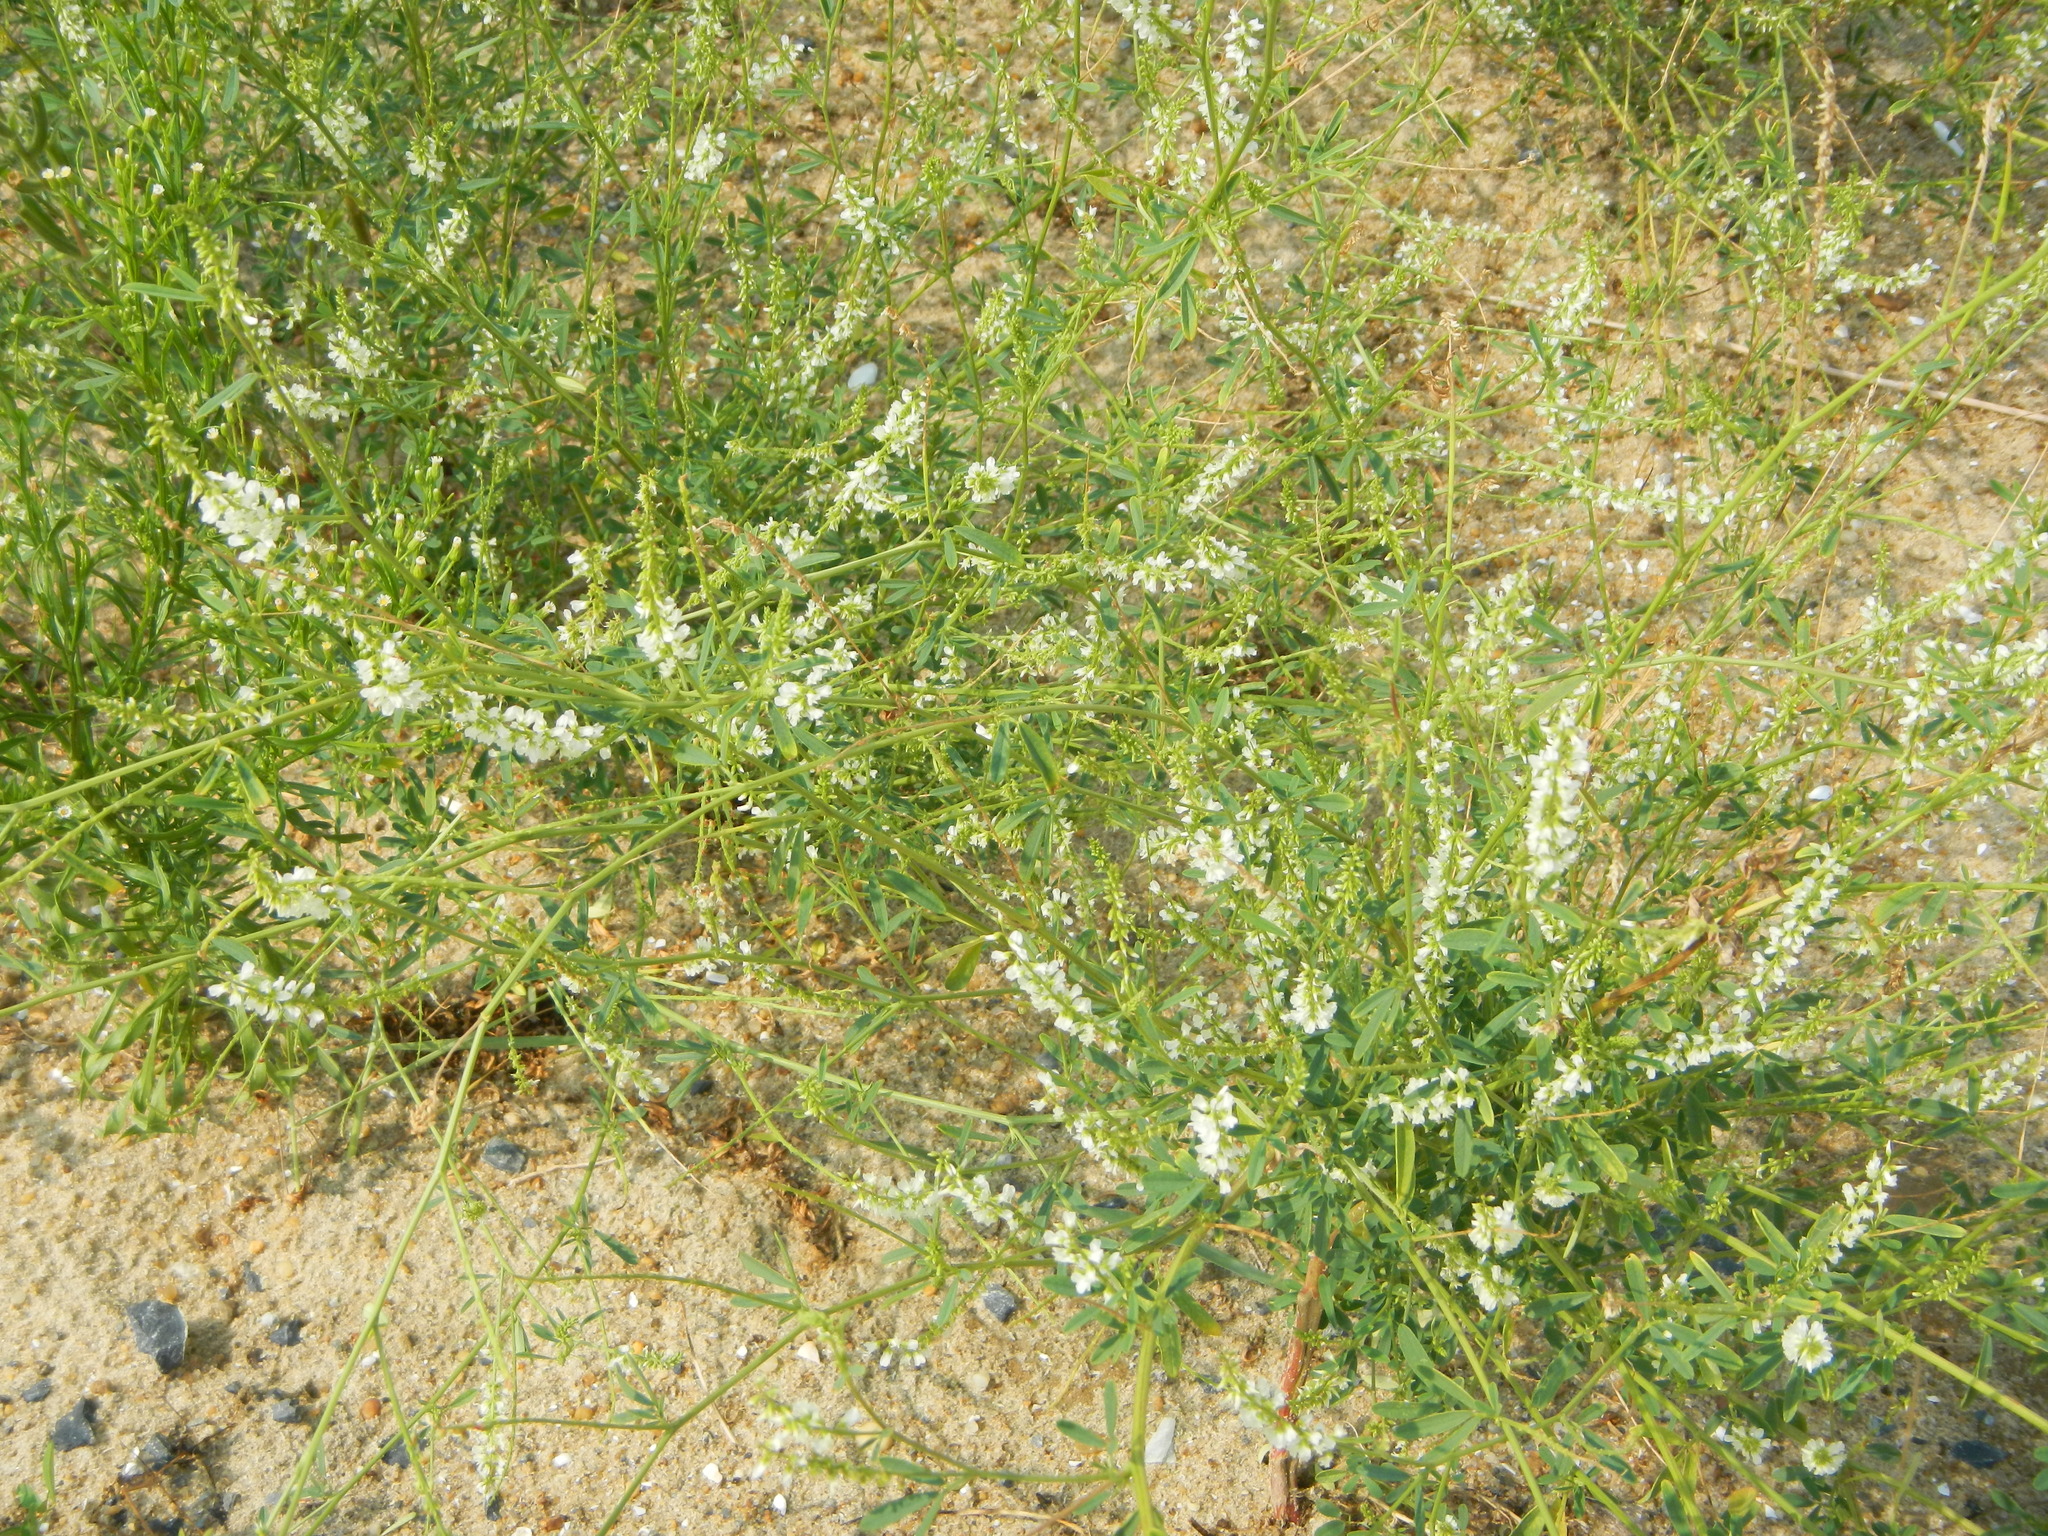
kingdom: Plantae
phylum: Tracheophyta
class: Magnoliopsida
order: Fabales
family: Fabaceae
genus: Melilotus
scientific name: Melilotus albus
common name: White melilot
